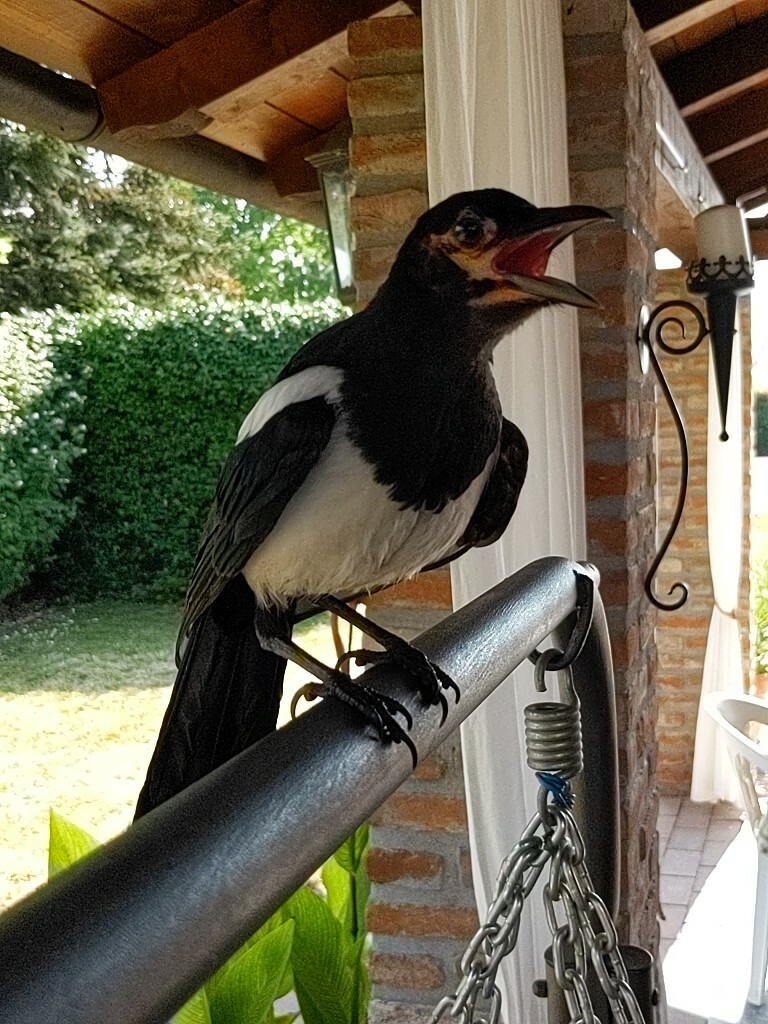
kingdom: Animalia
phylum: Chordata
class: Aves
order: Passeriformes
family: Corvidae
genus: Pica
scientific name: Pica pica
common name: Eurasian magpie
